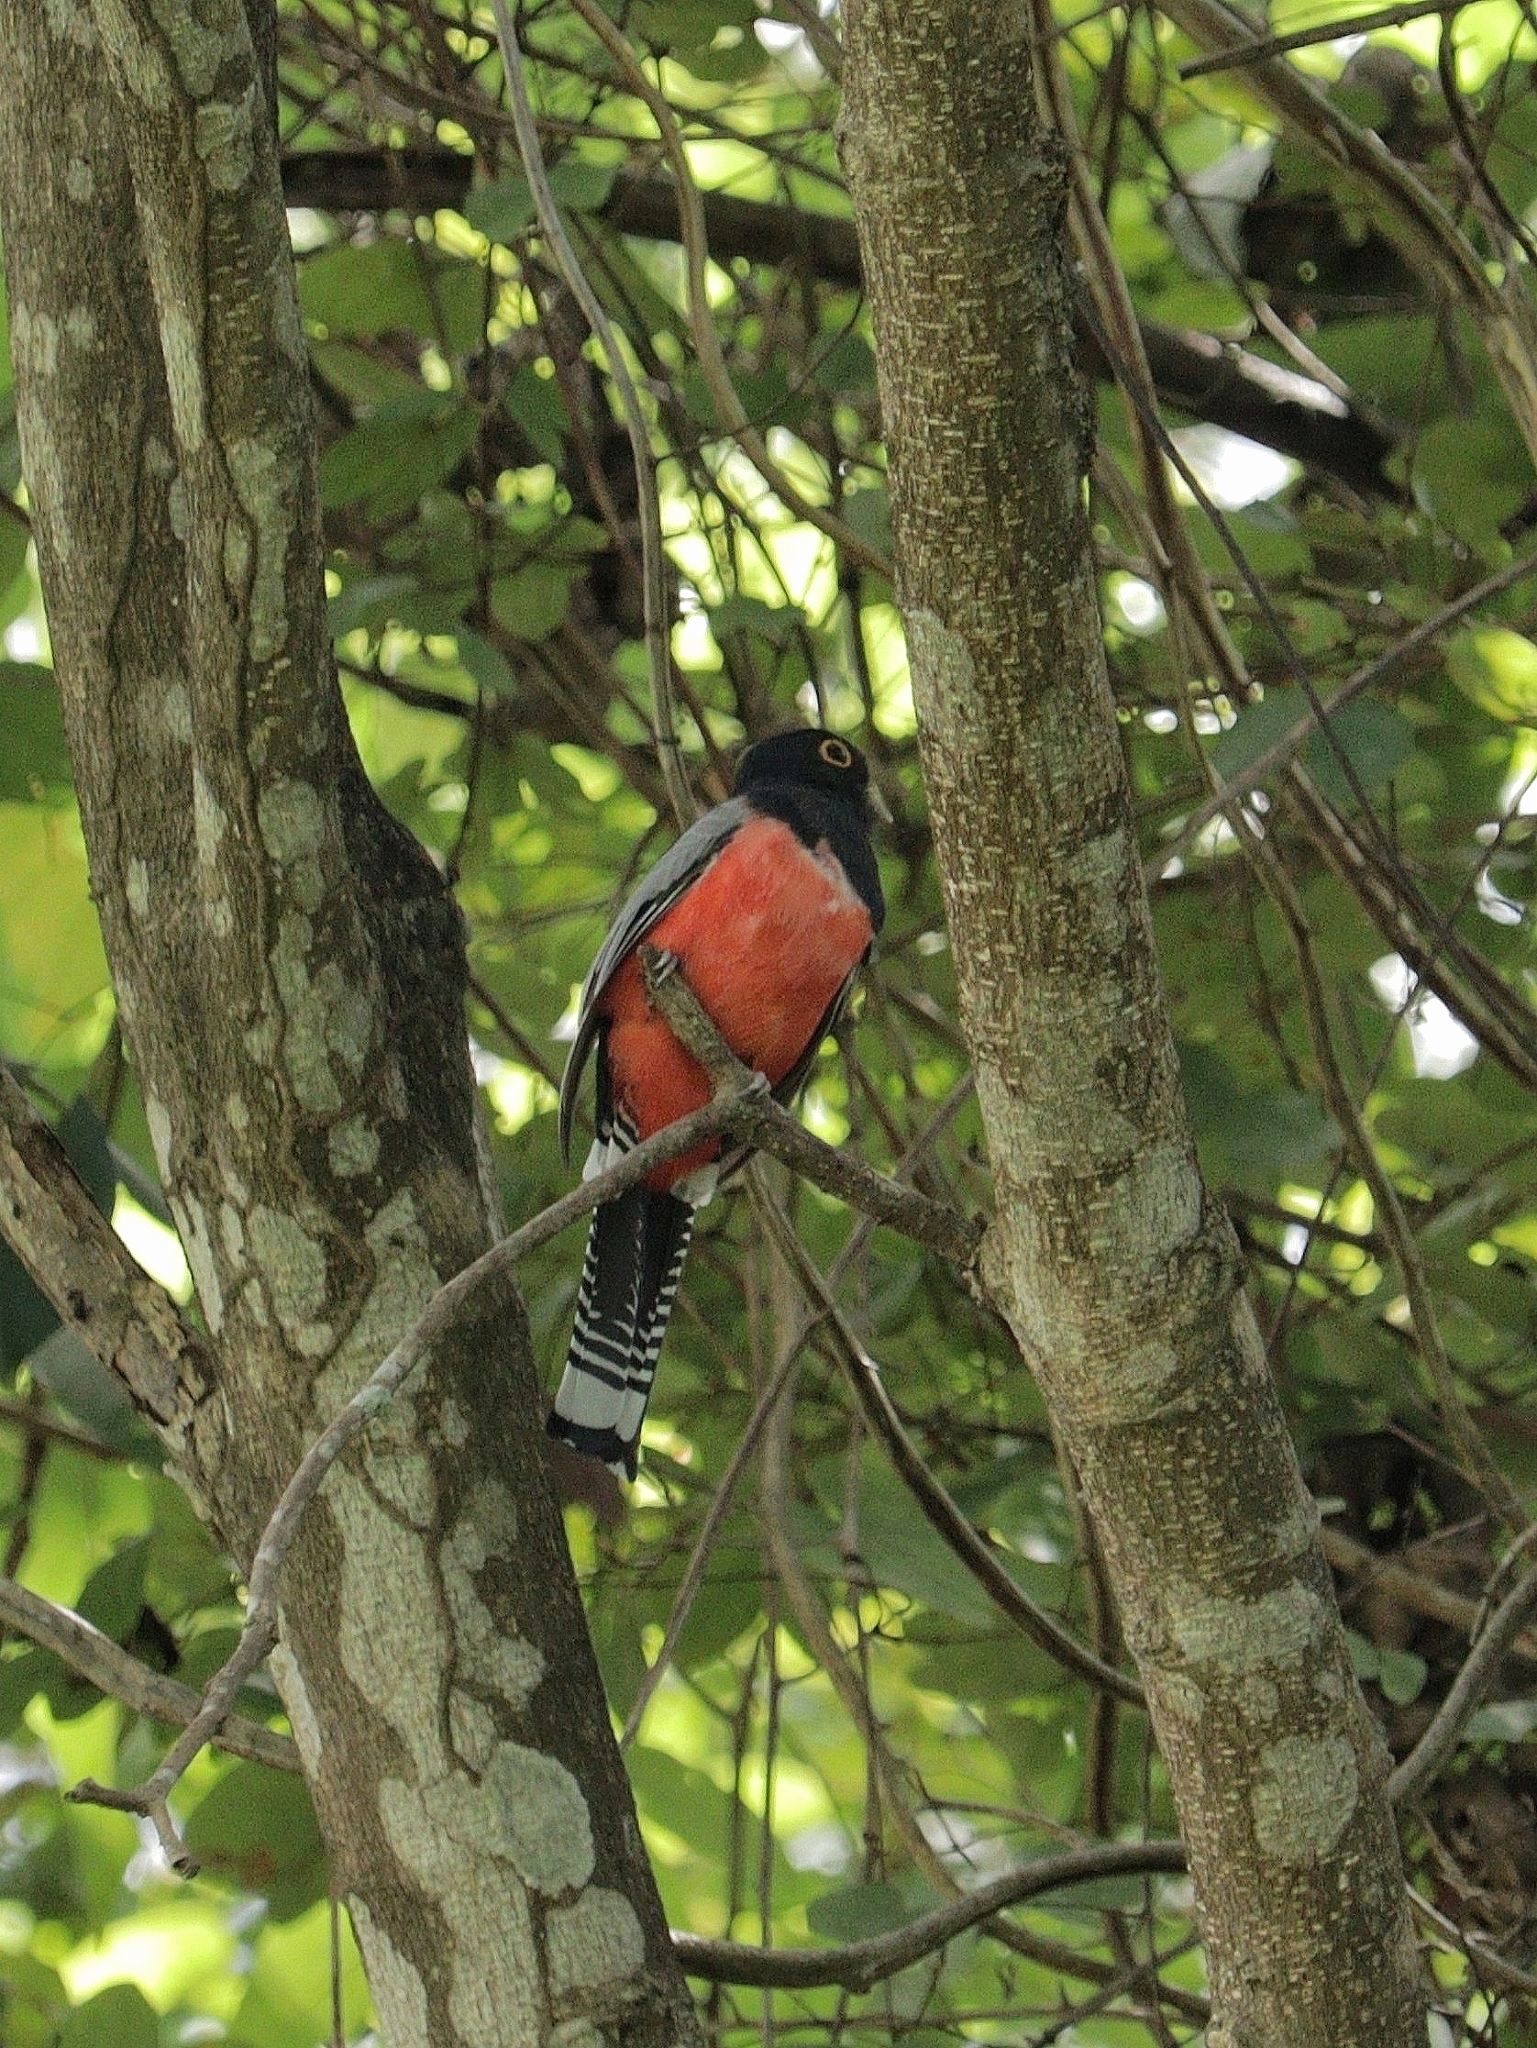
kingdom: Animalia
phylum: Chordata
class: Aves
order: Trogoniformes
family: Trogonidae
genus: Trogon
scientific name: Trogon curucui
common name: Blue-crowned trogon
